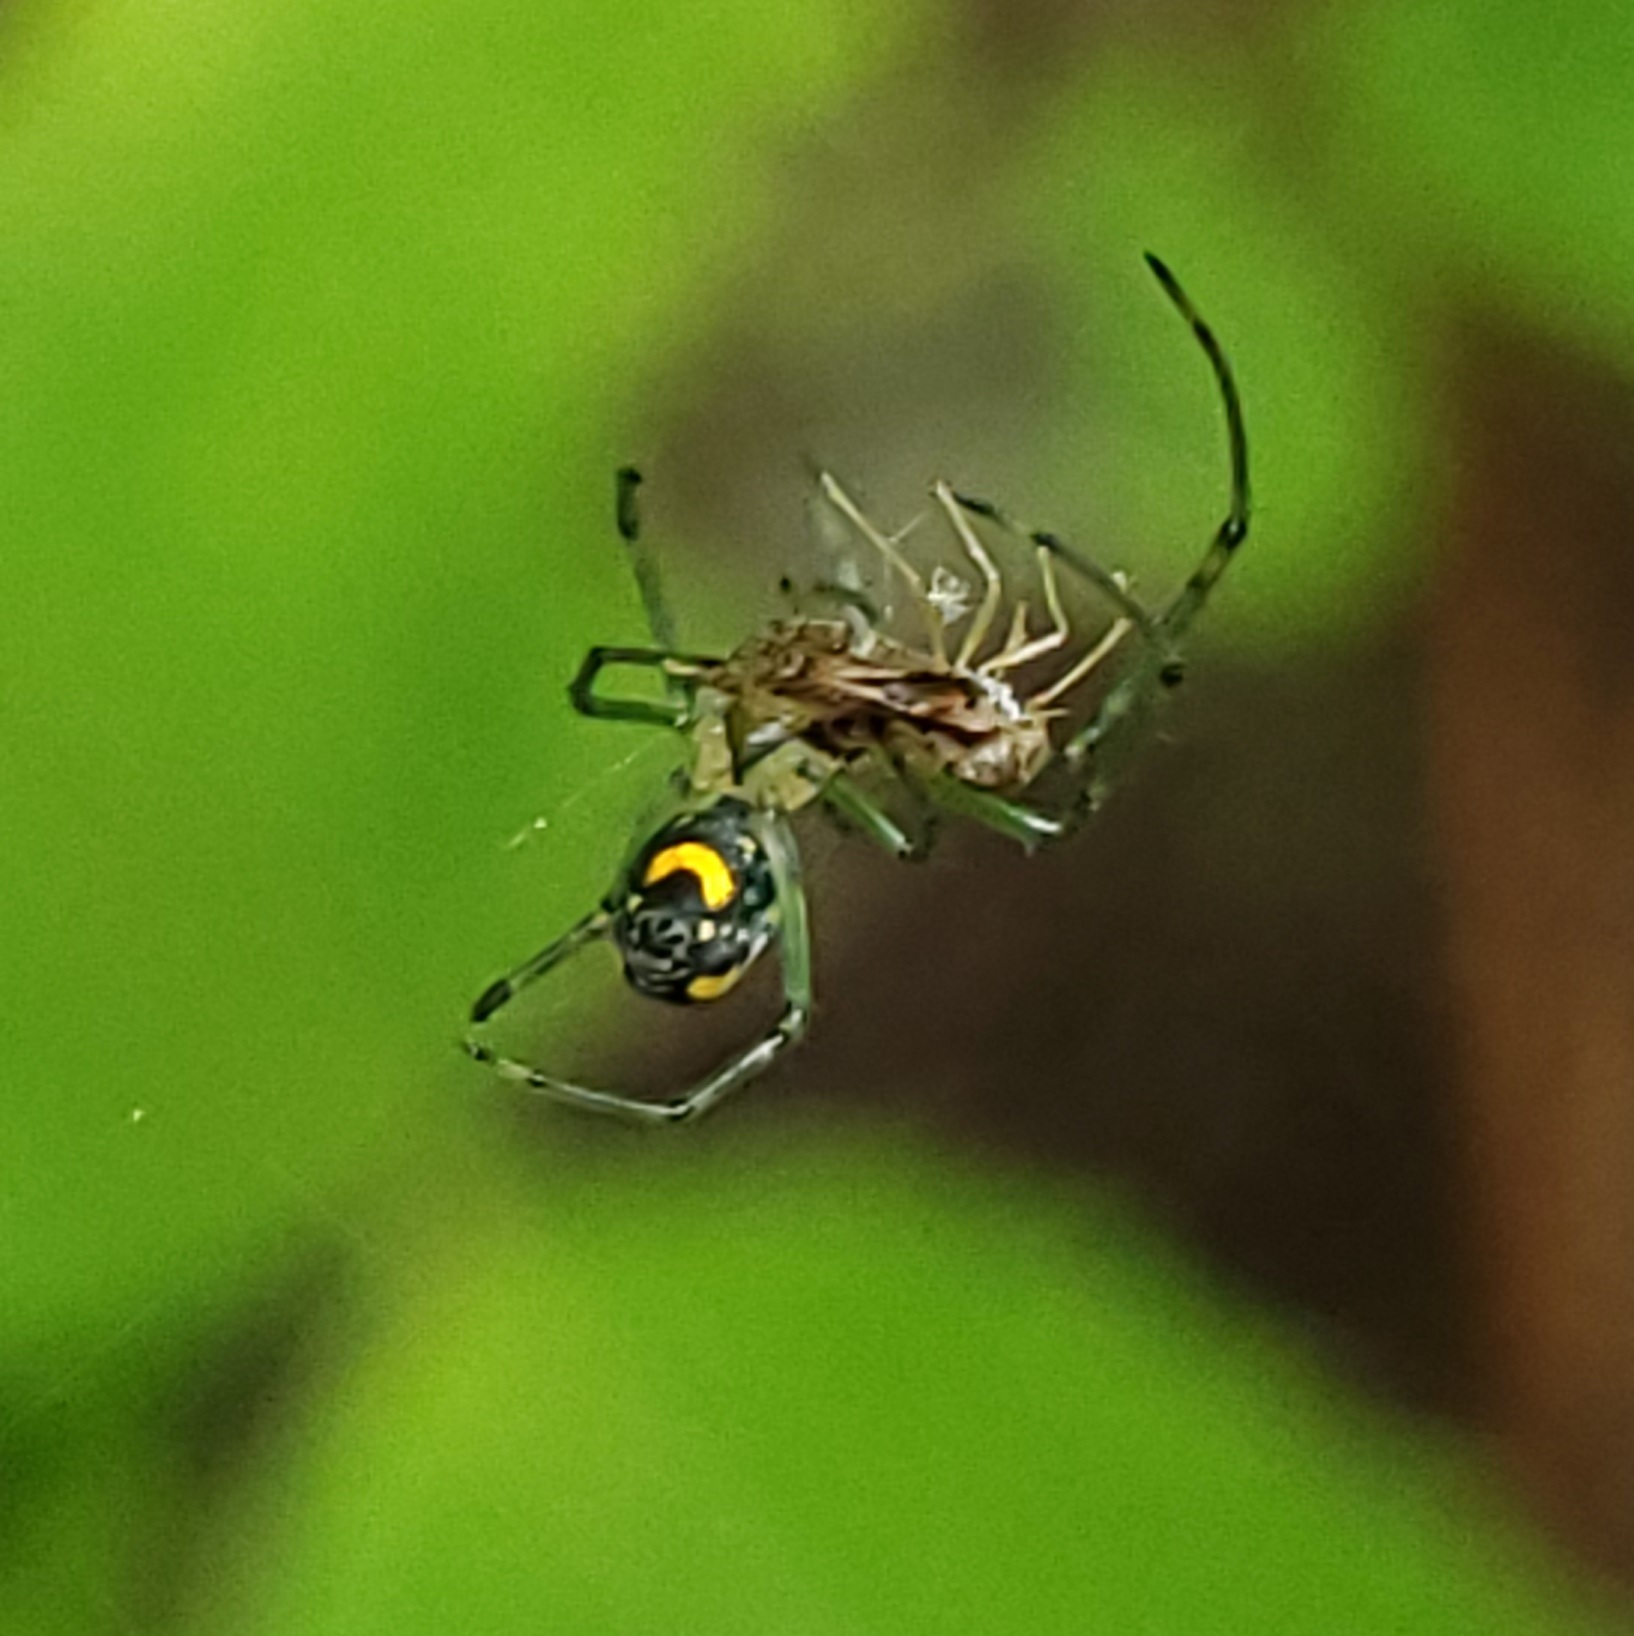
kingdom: Animalia
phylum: Arthropoda
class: Arachnida
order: Araneae
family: Tetragnathidae
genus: Leucauge
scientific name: Leucauge venusta
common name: Longjawed orb weavers
